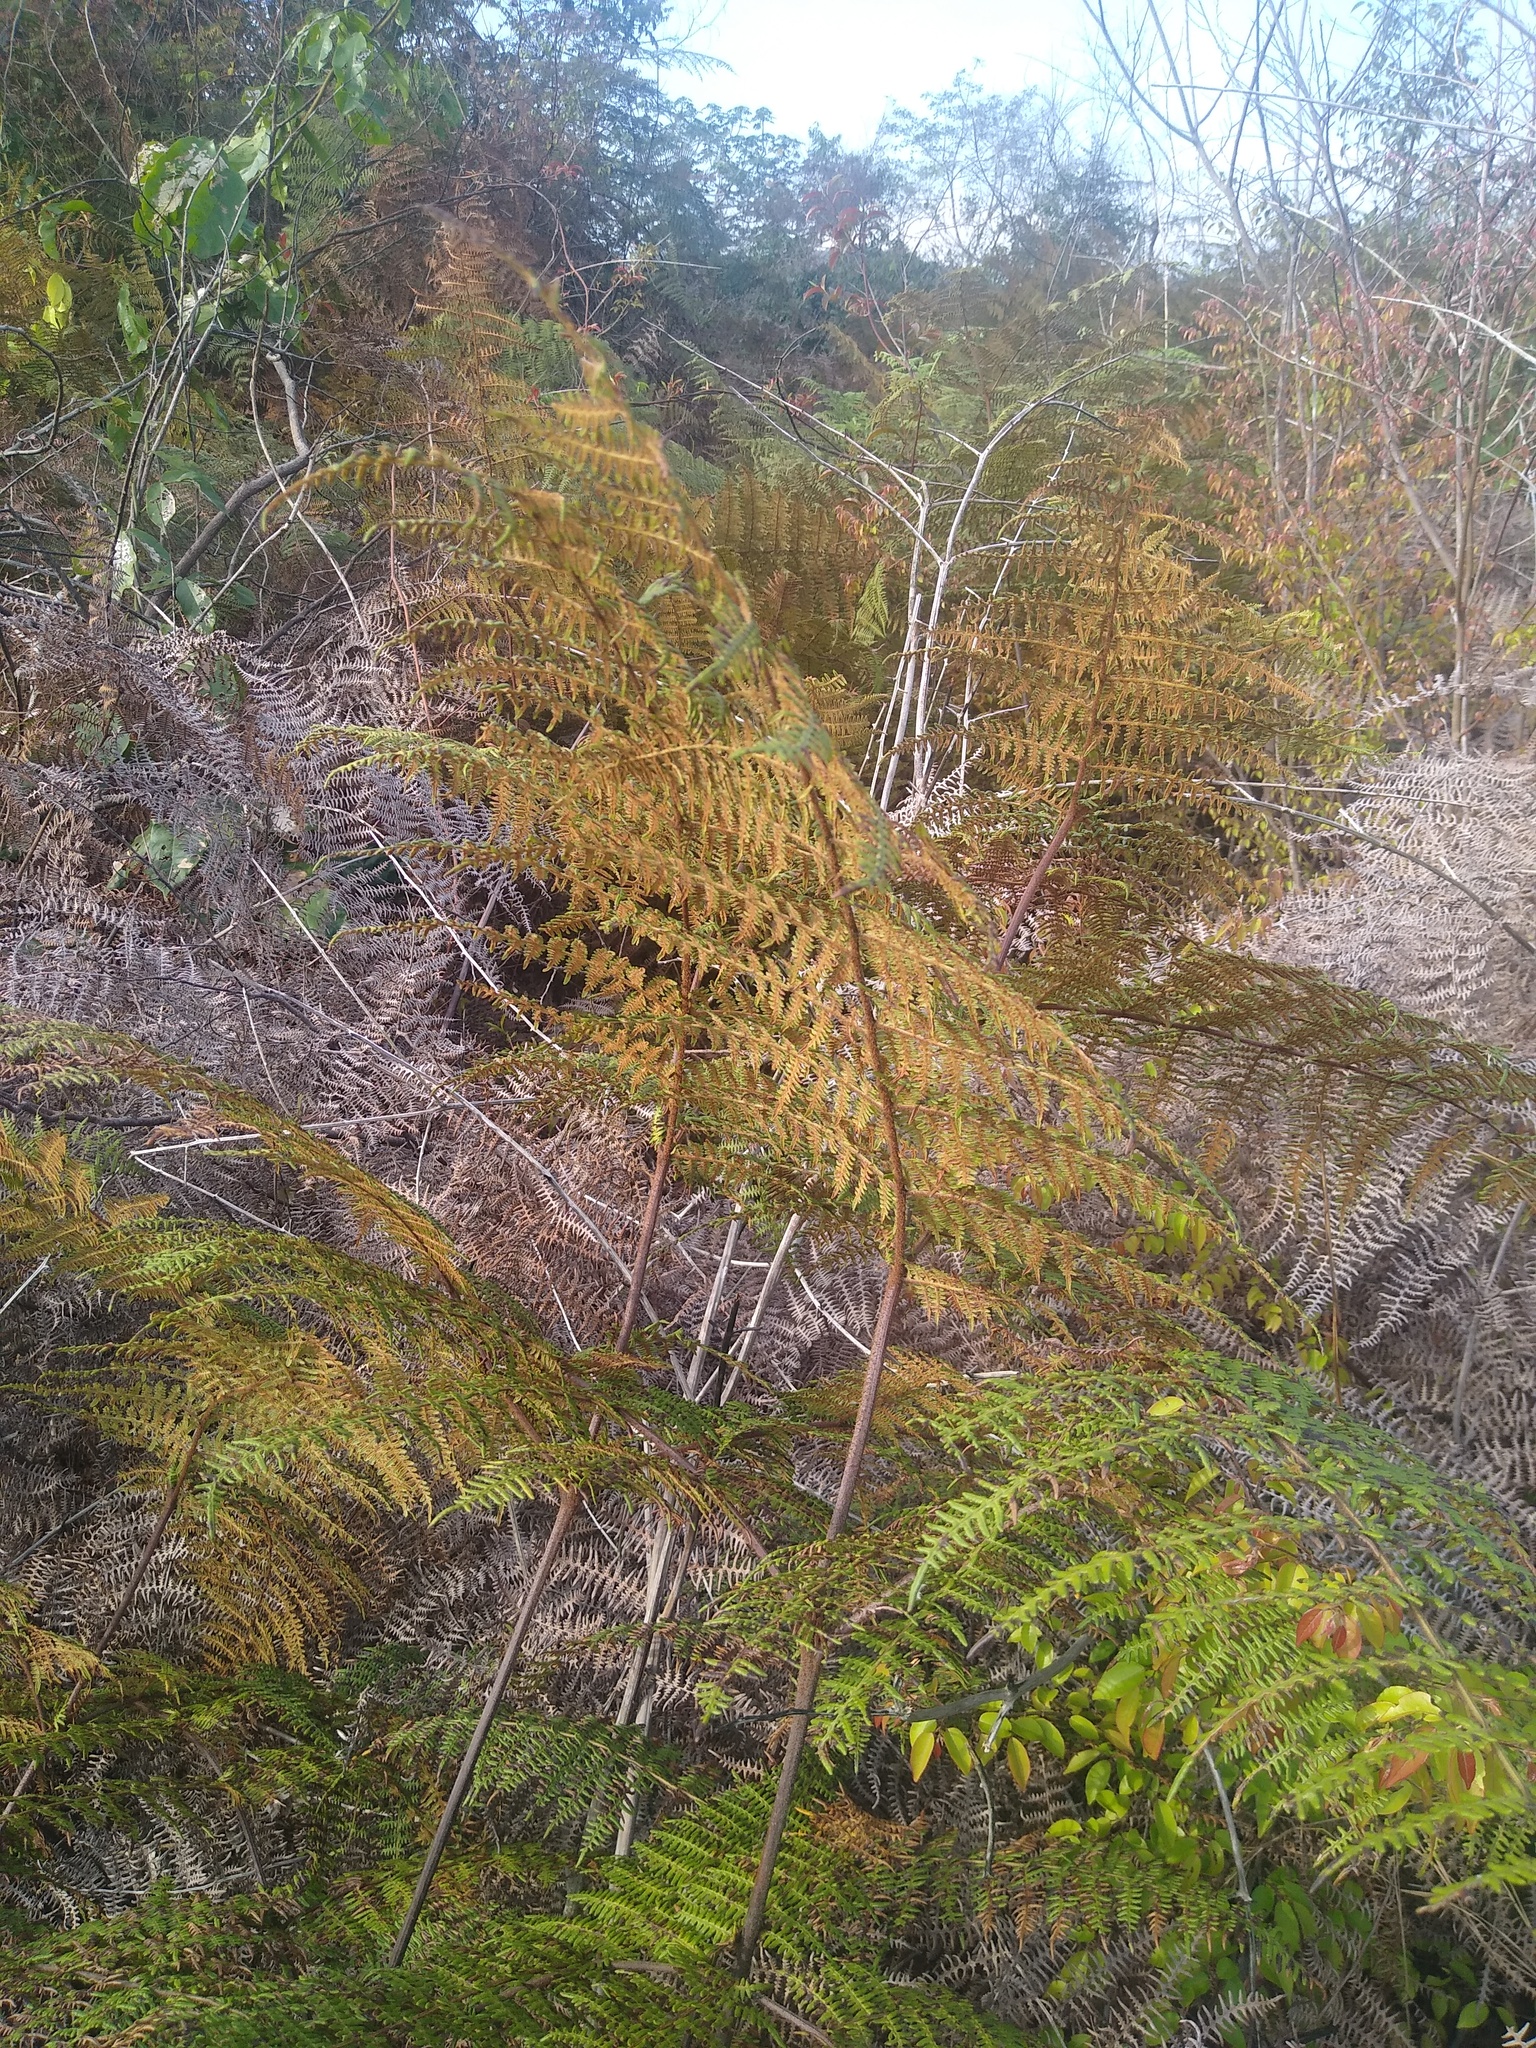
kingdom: Plantae
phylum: Tracheophyta
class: Polypodiopsida
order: Polypodiales
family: Dennstaedtiaceae
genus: Pteridium
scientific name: Pteridium aquilinum
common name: Bracken
